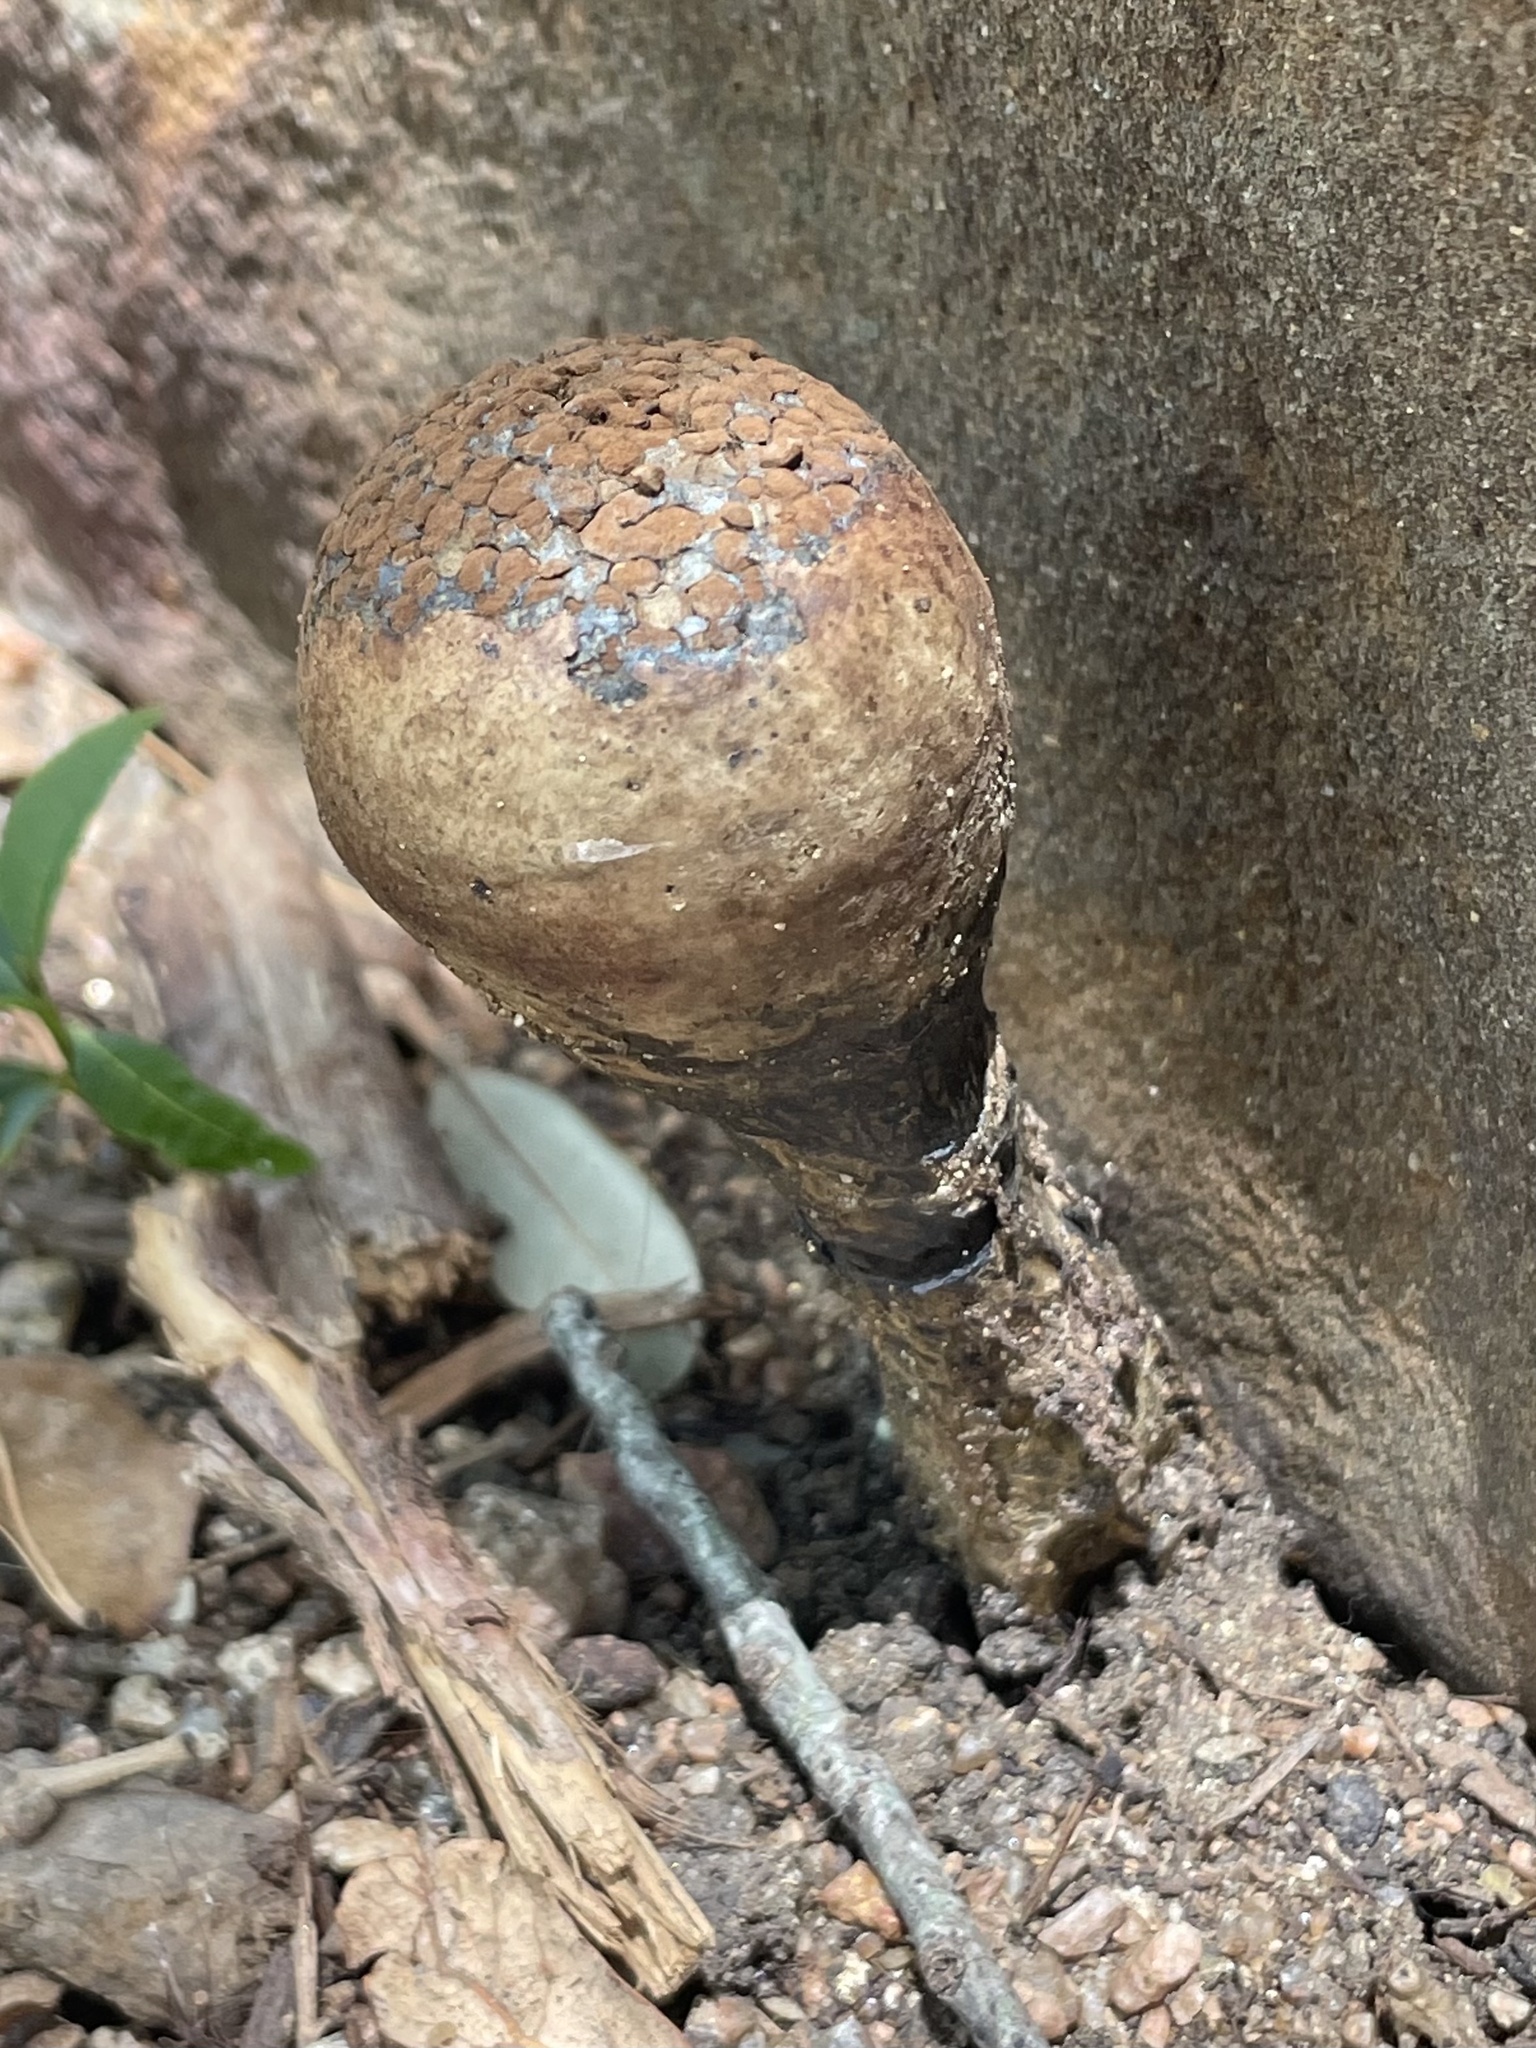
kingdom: Fungi
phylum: Basidiomycota
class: Agaricomycetes
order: Boletales
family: Sclerodermataceae
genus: Pisolithus
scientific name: Pisolithus arenarius
